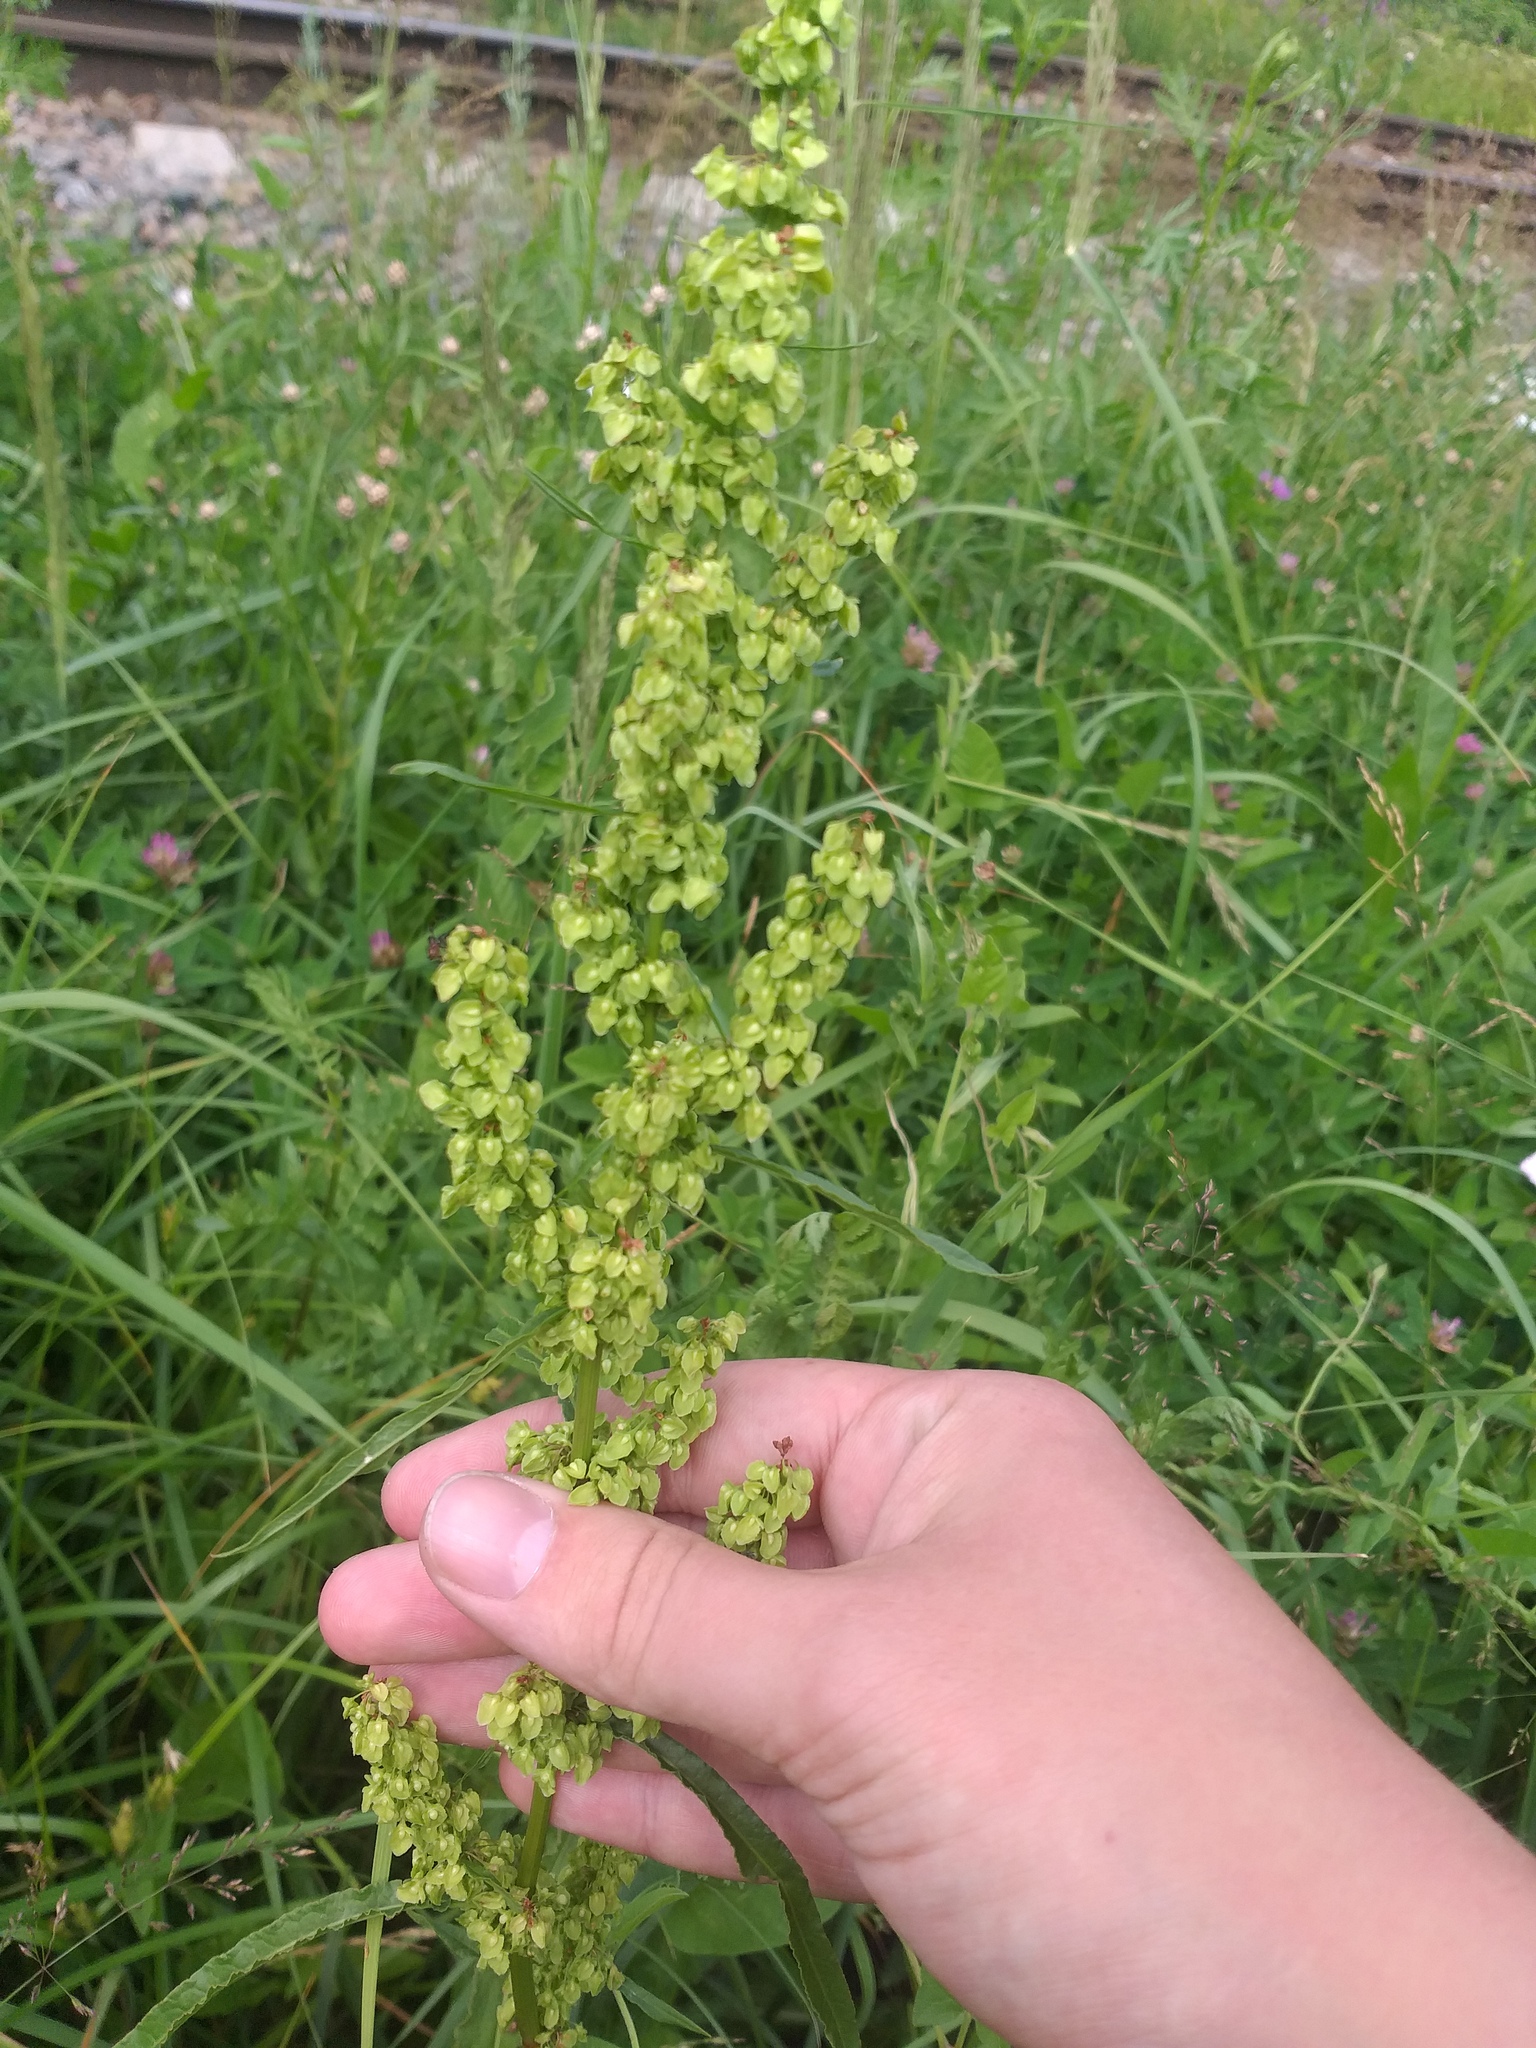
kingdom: Plantae
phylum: Tracheophyta
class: Magnoliopsida
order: Caryophyllales
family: Polygonaceae
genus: Rumex
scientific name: Rumex crispus
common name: Curled dock
